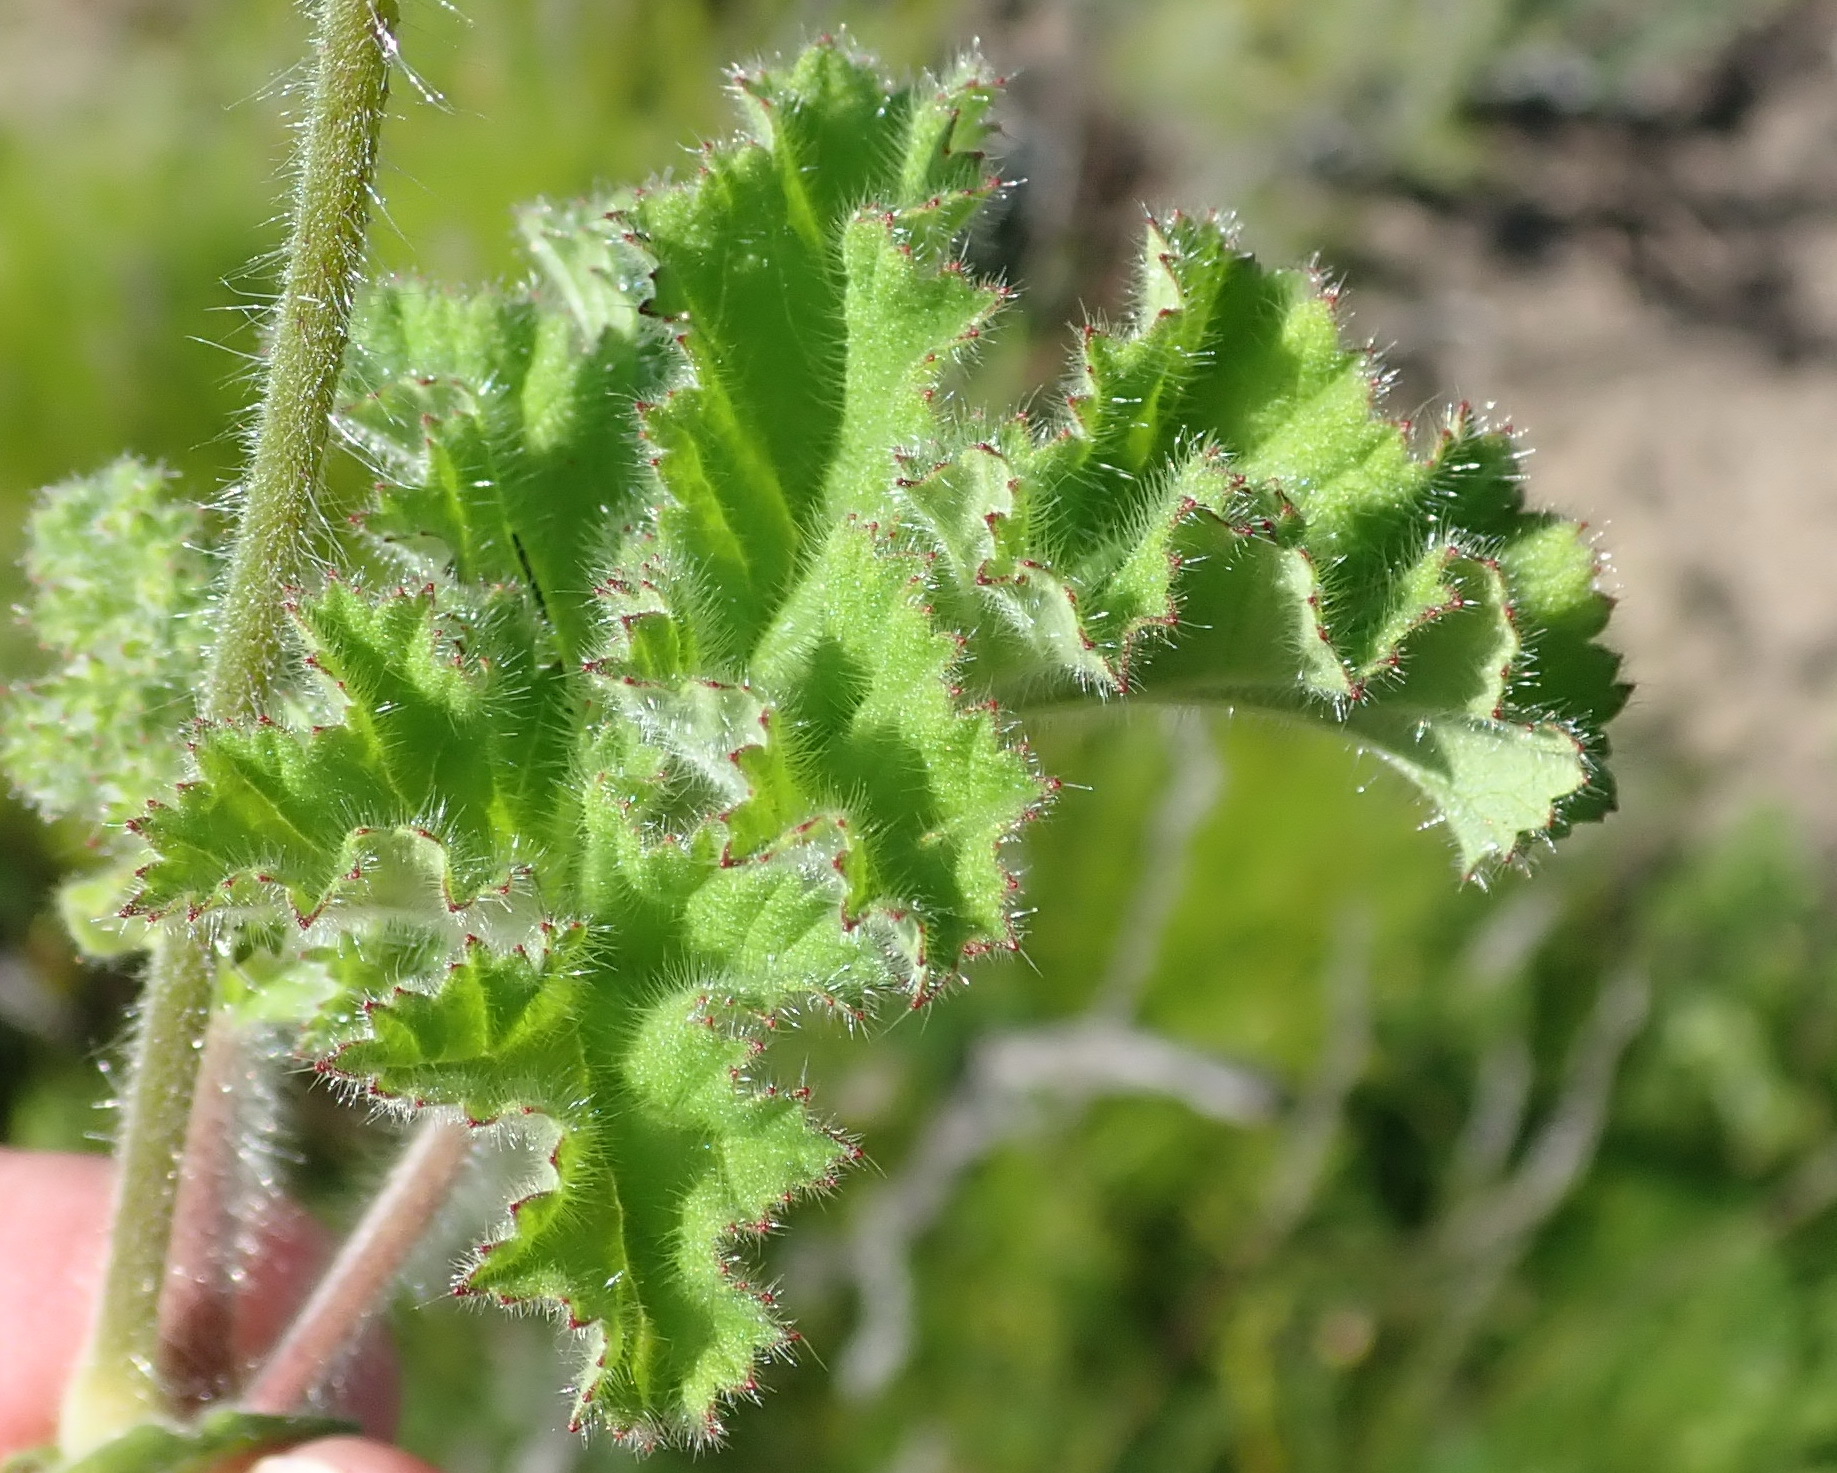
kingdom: Plantae
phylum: Tracheophyta
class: Magnoliopsida
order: Geraniales
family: Geraniaceae
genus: Pelargonium
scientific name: Pelargonium capitatum
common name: Rose scented geranium
